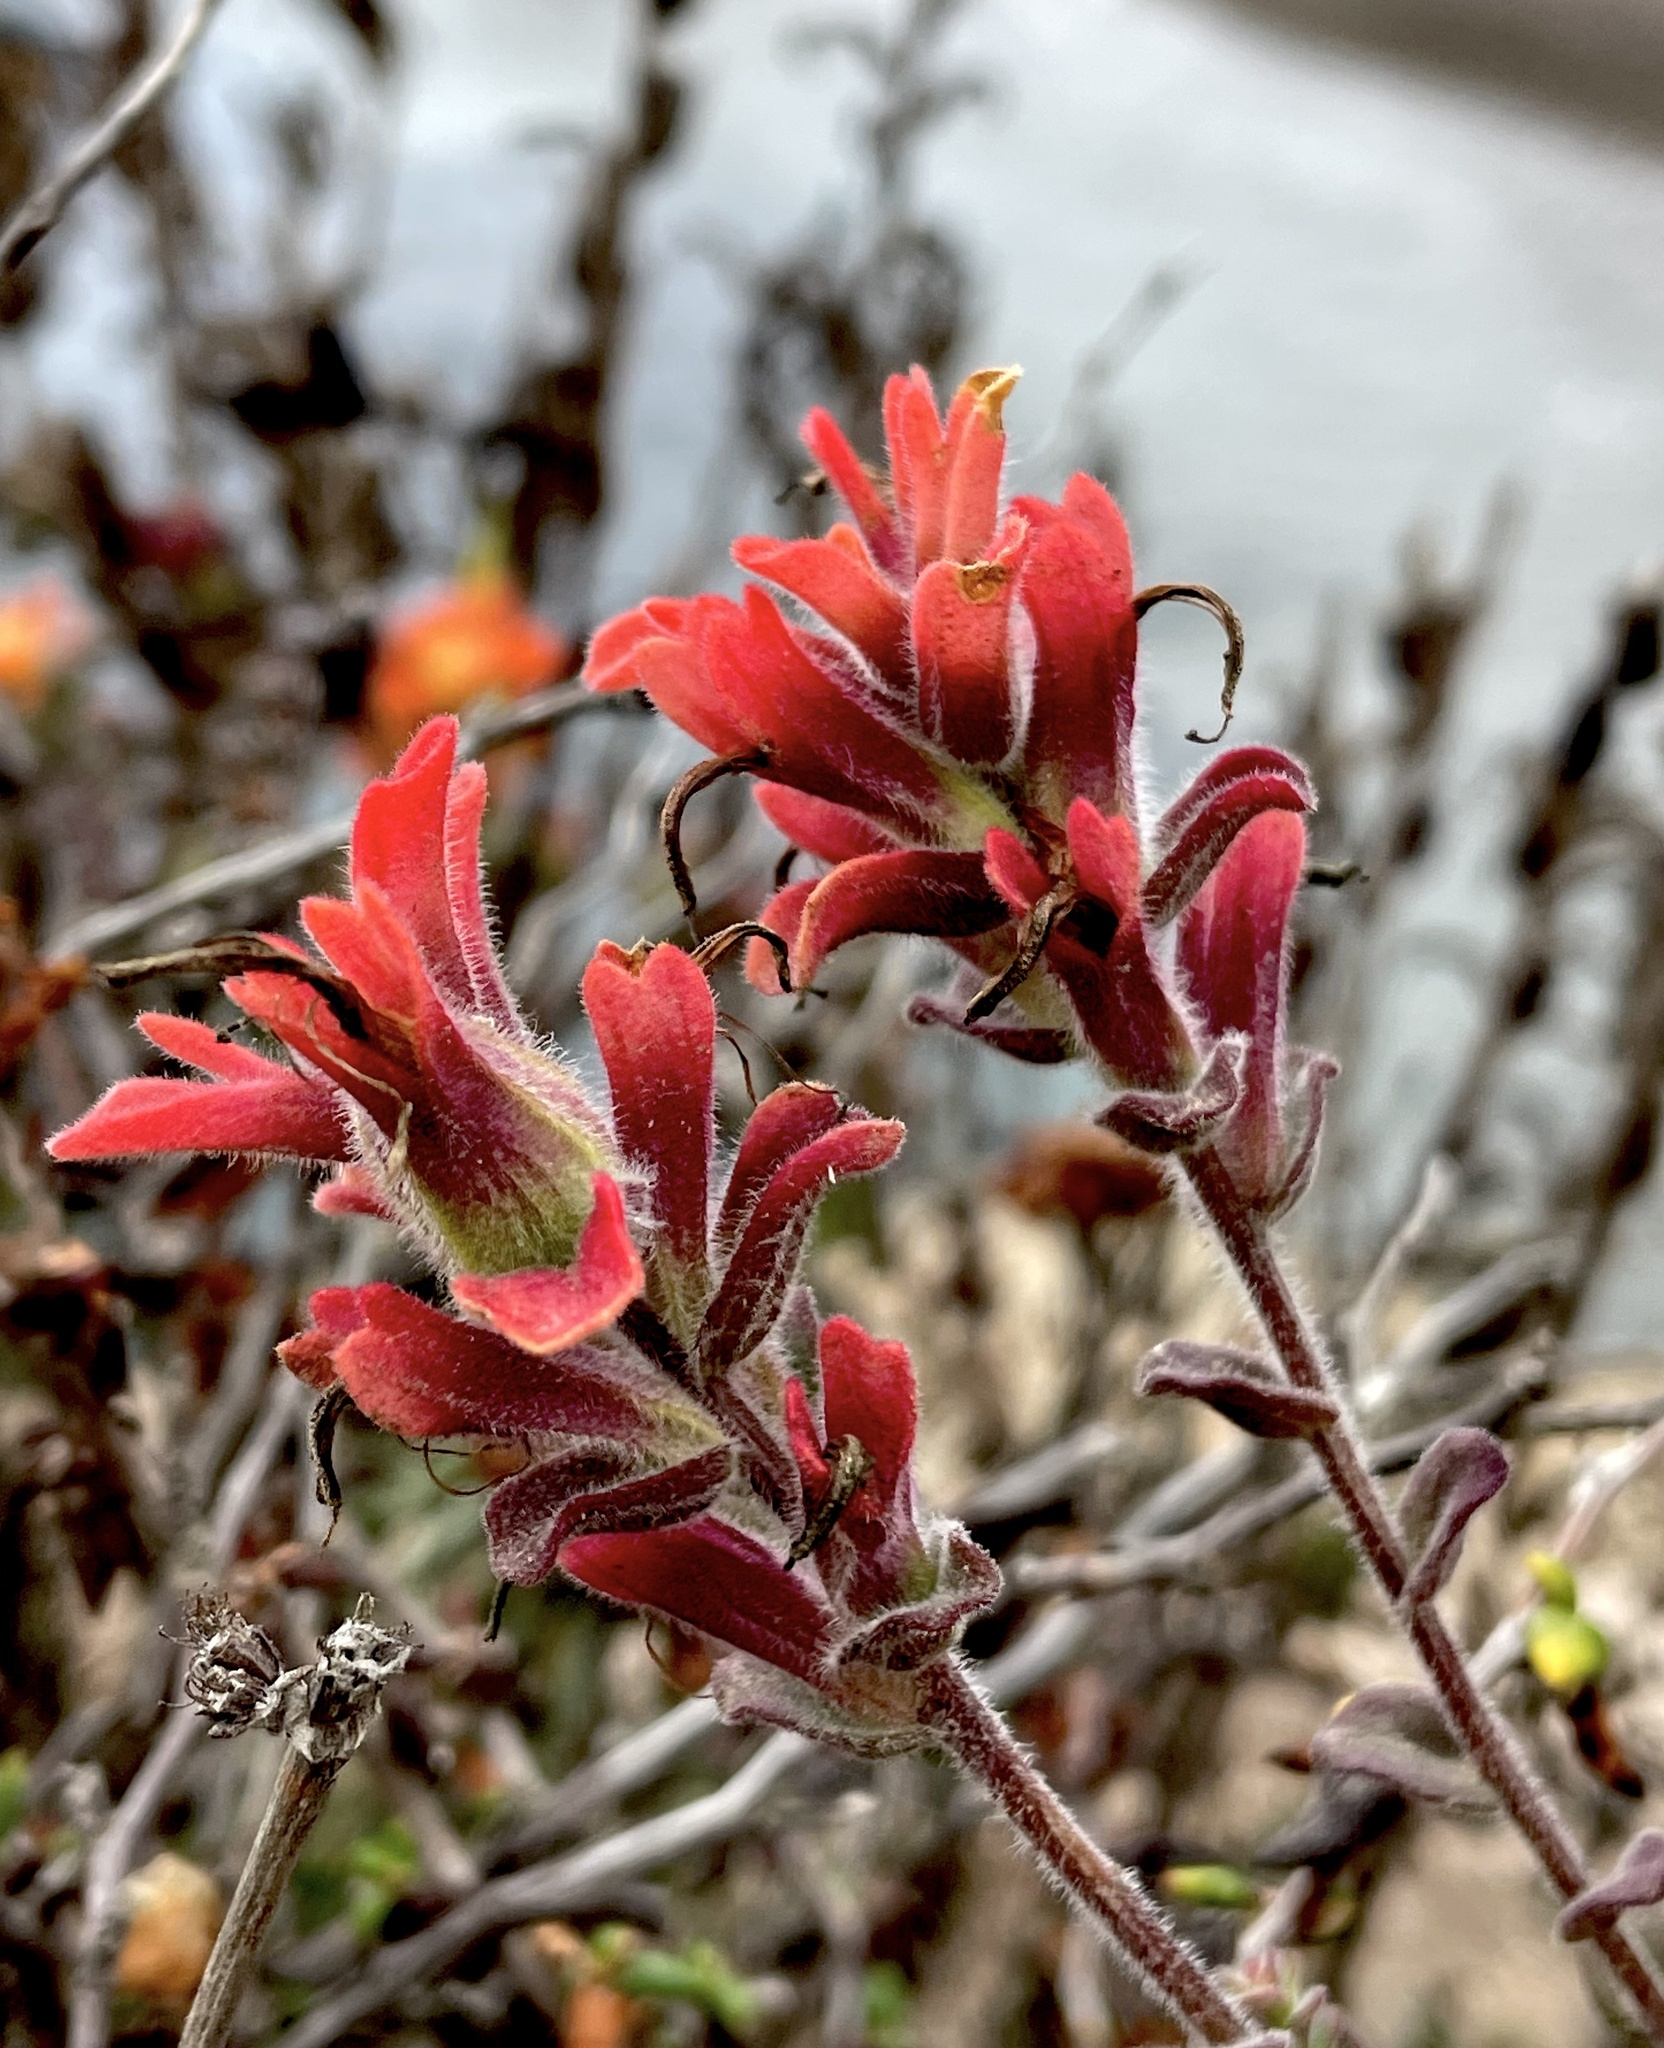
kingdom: Plantae
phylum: Tracheophyta
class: Magnoliopsida
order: Lamiales
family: Orobanchaceae
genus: Castilleja
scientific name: Castilleja latifolia
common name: Monterey indian paintbrush
